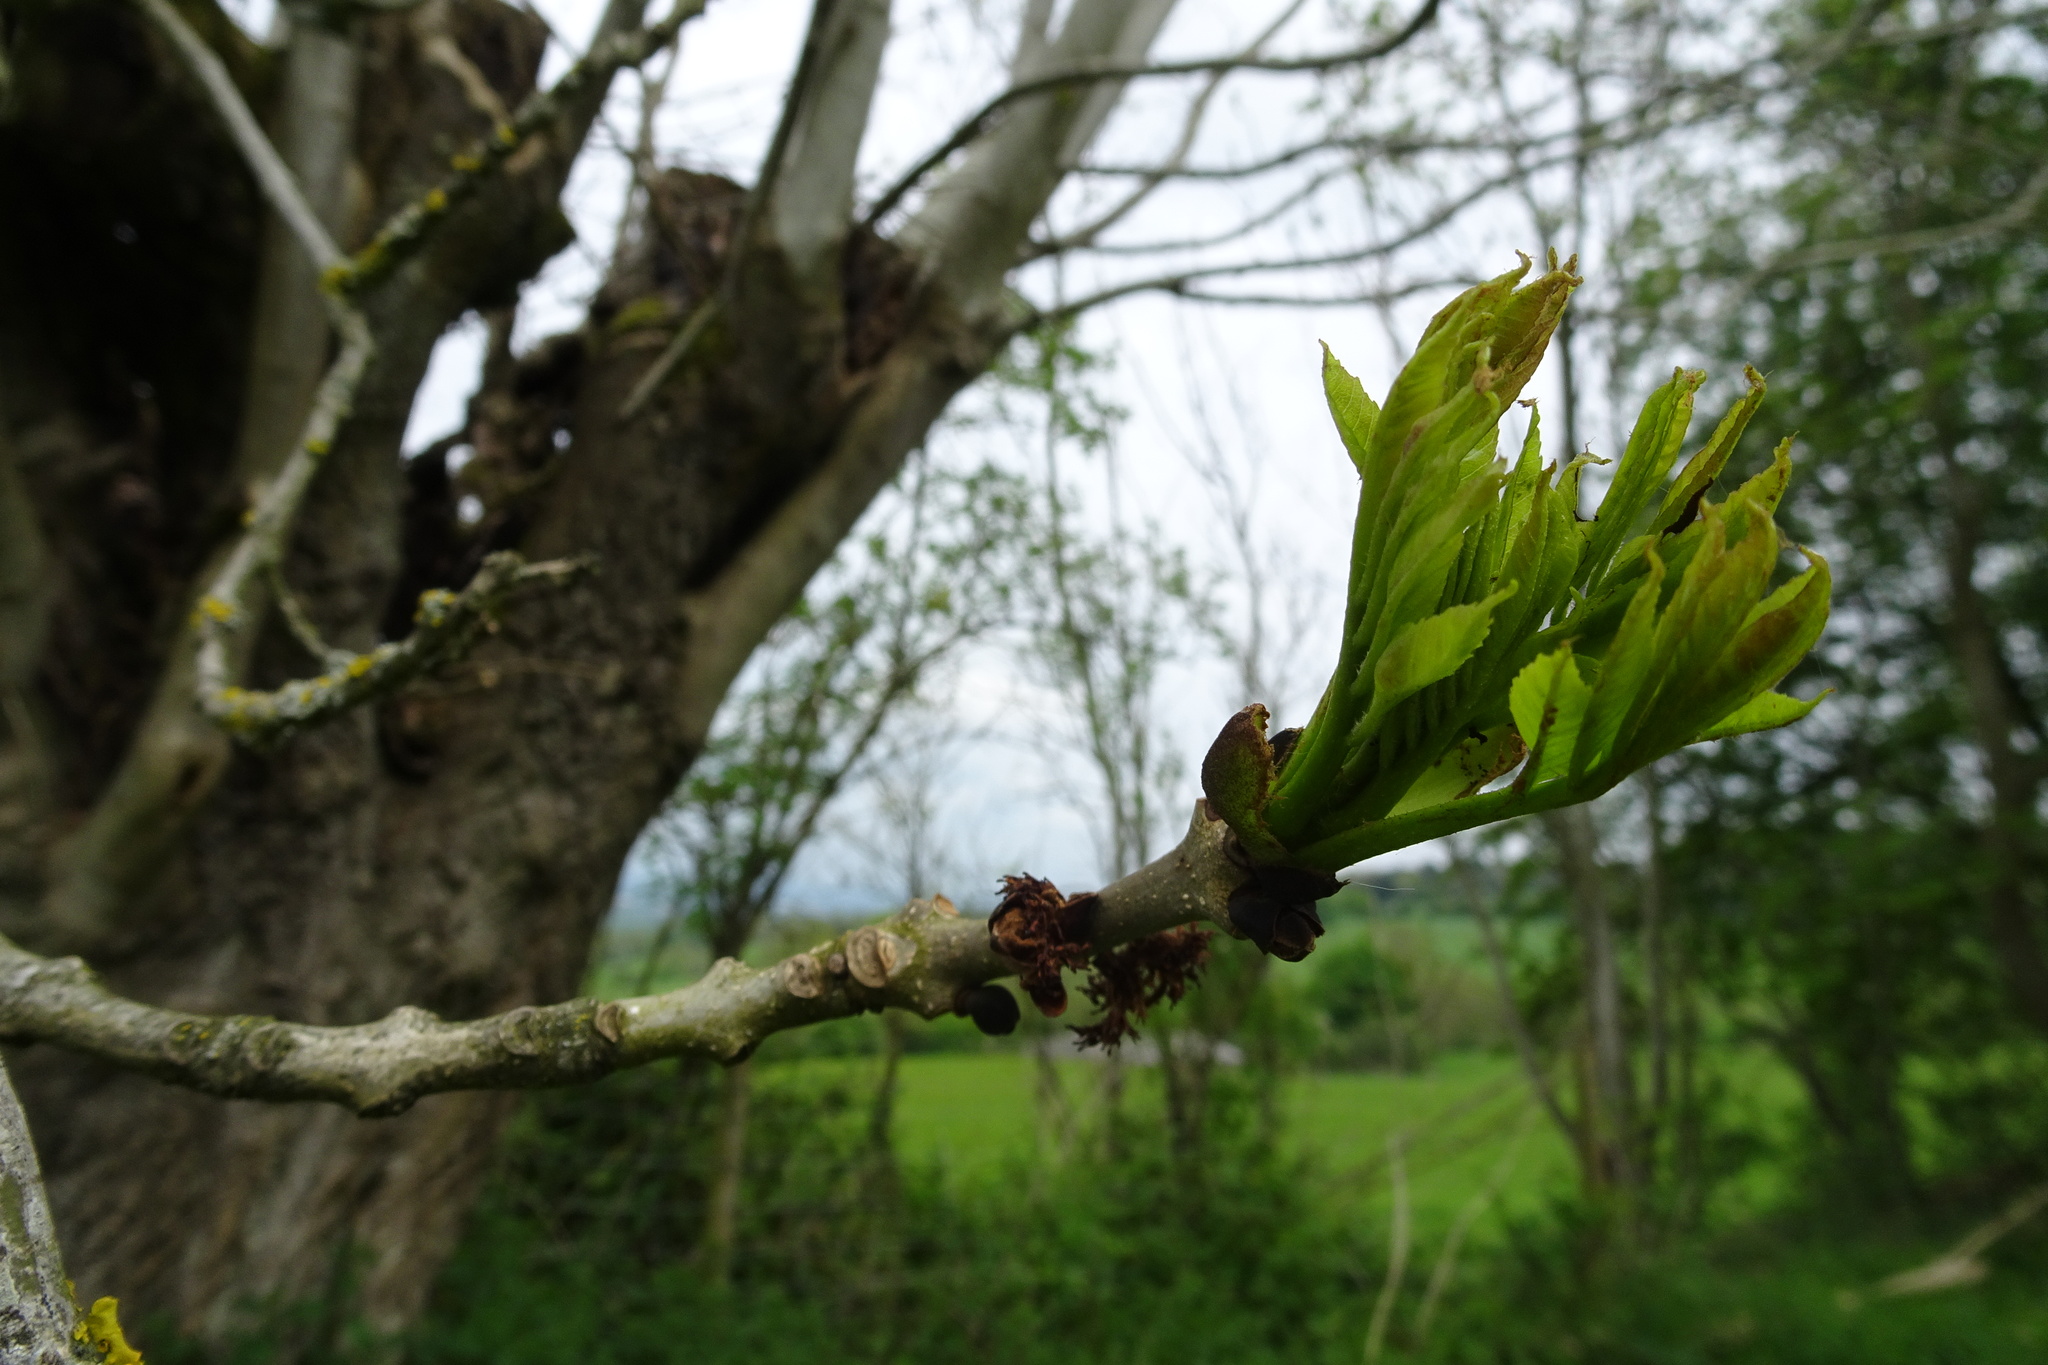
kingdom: Plantae
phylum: Tracheophyta
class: Magnoliopsida
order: Lamiales
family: Oleaceae
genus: Fraxinus
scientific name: Fraxinus excelsior
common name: European ash
